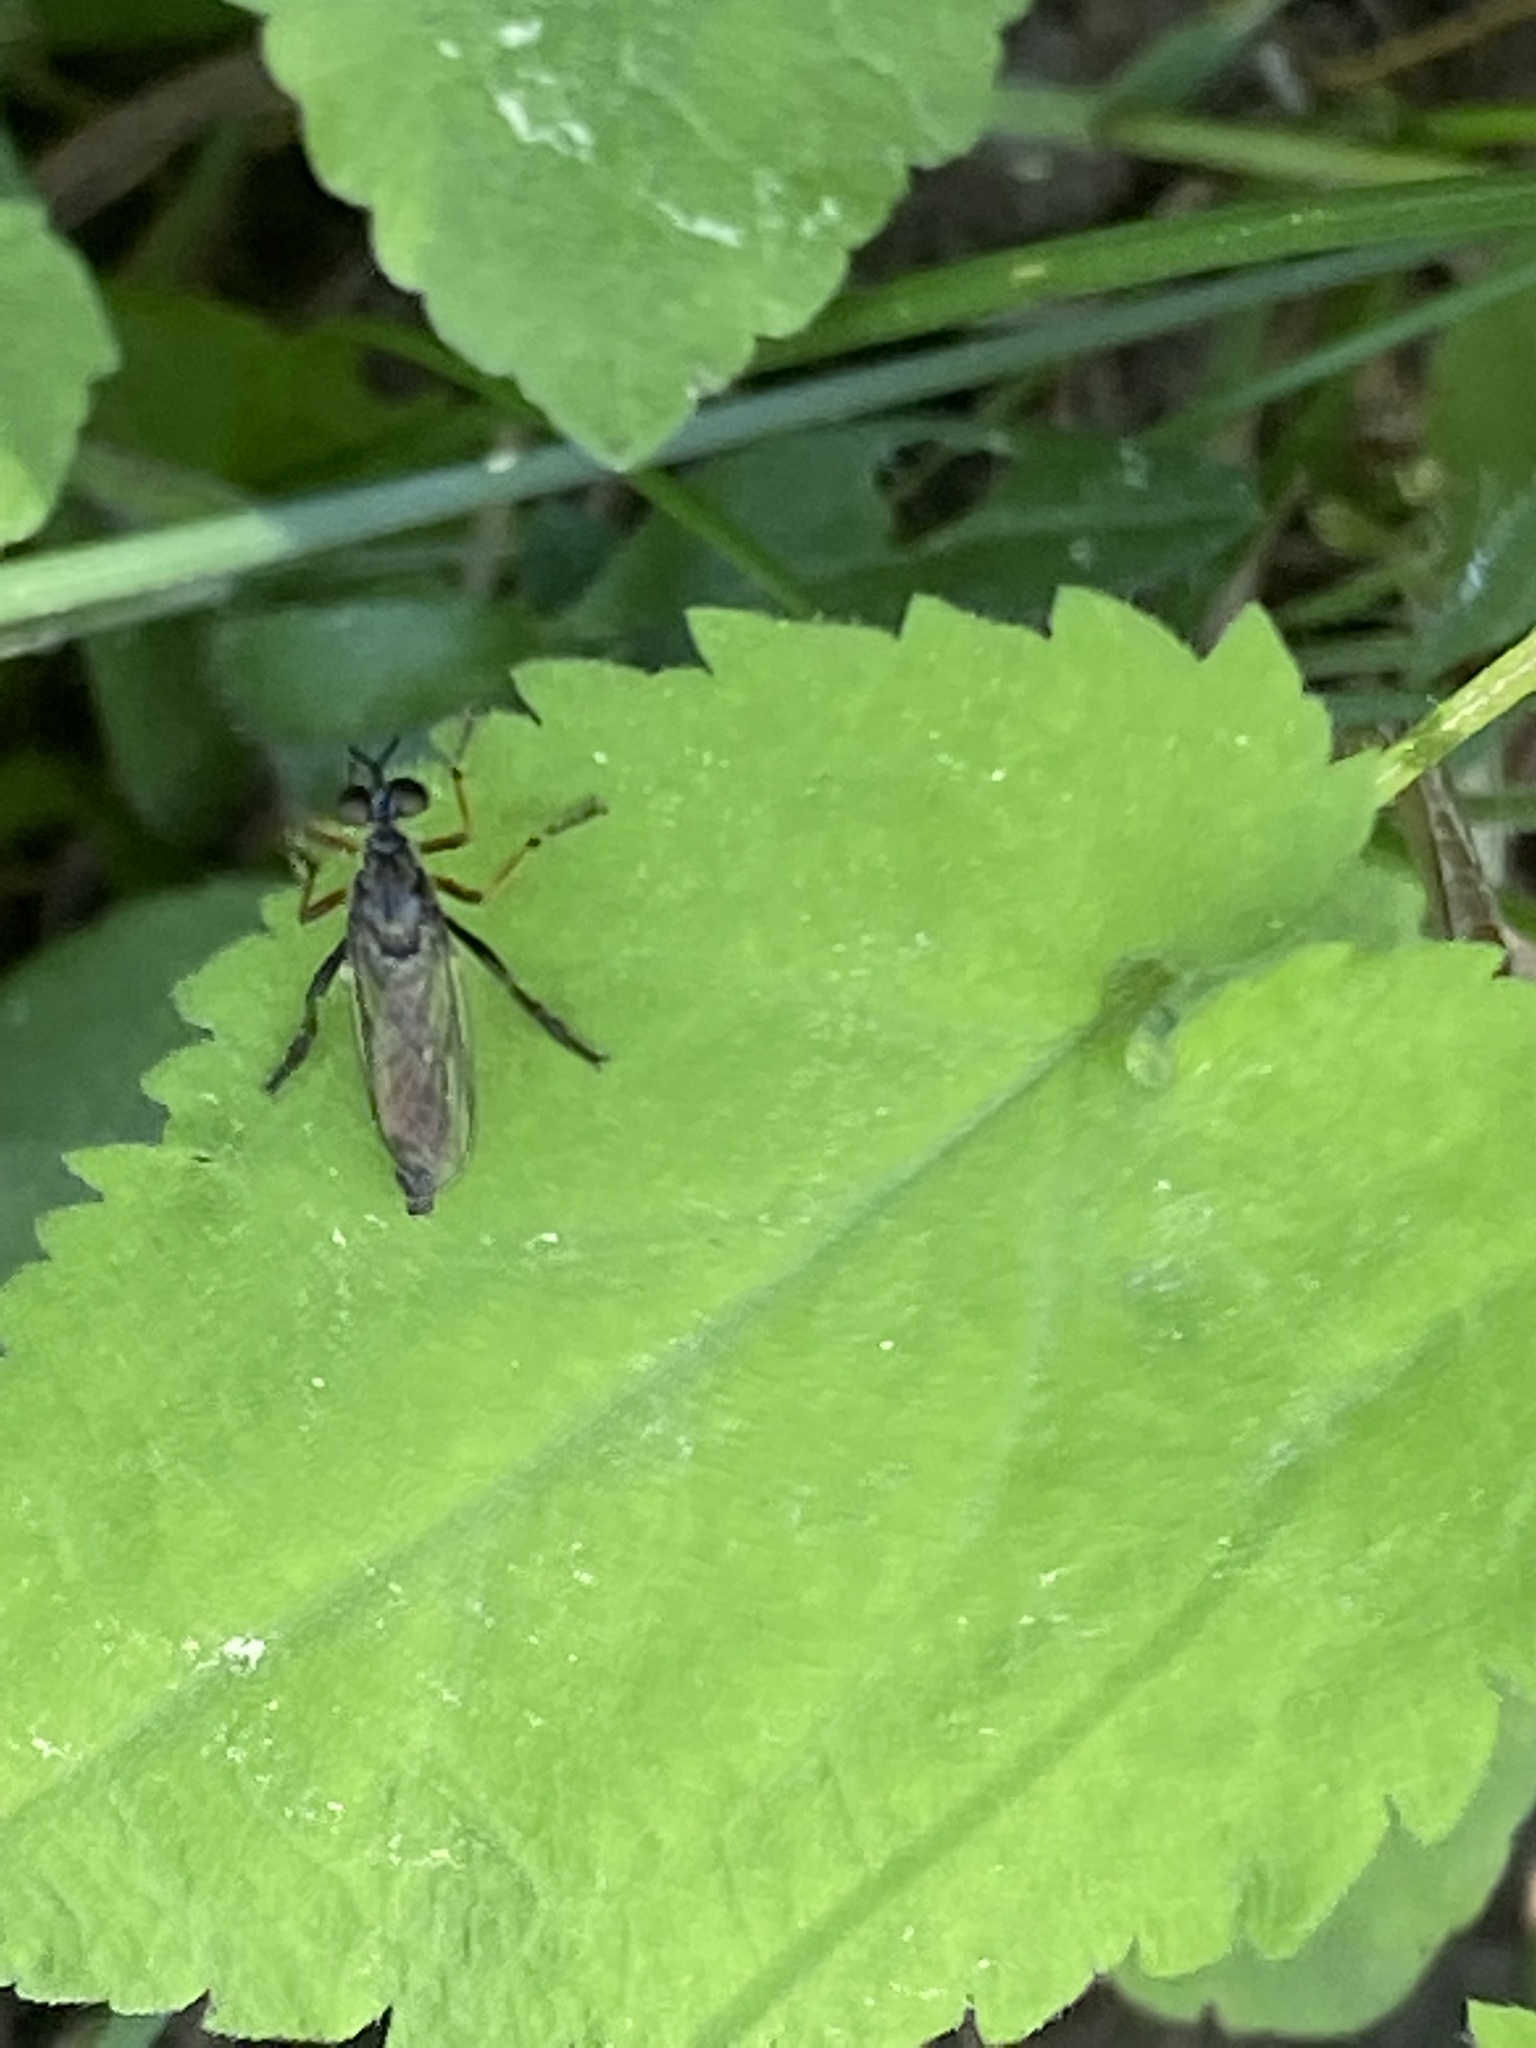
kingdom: Animalia
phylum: Arthropoda
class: Insecta
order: Diptera
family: Asilidae
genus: Dioctria
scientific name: Dioctria hyalipennis
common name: Stripe-legged robberfly
